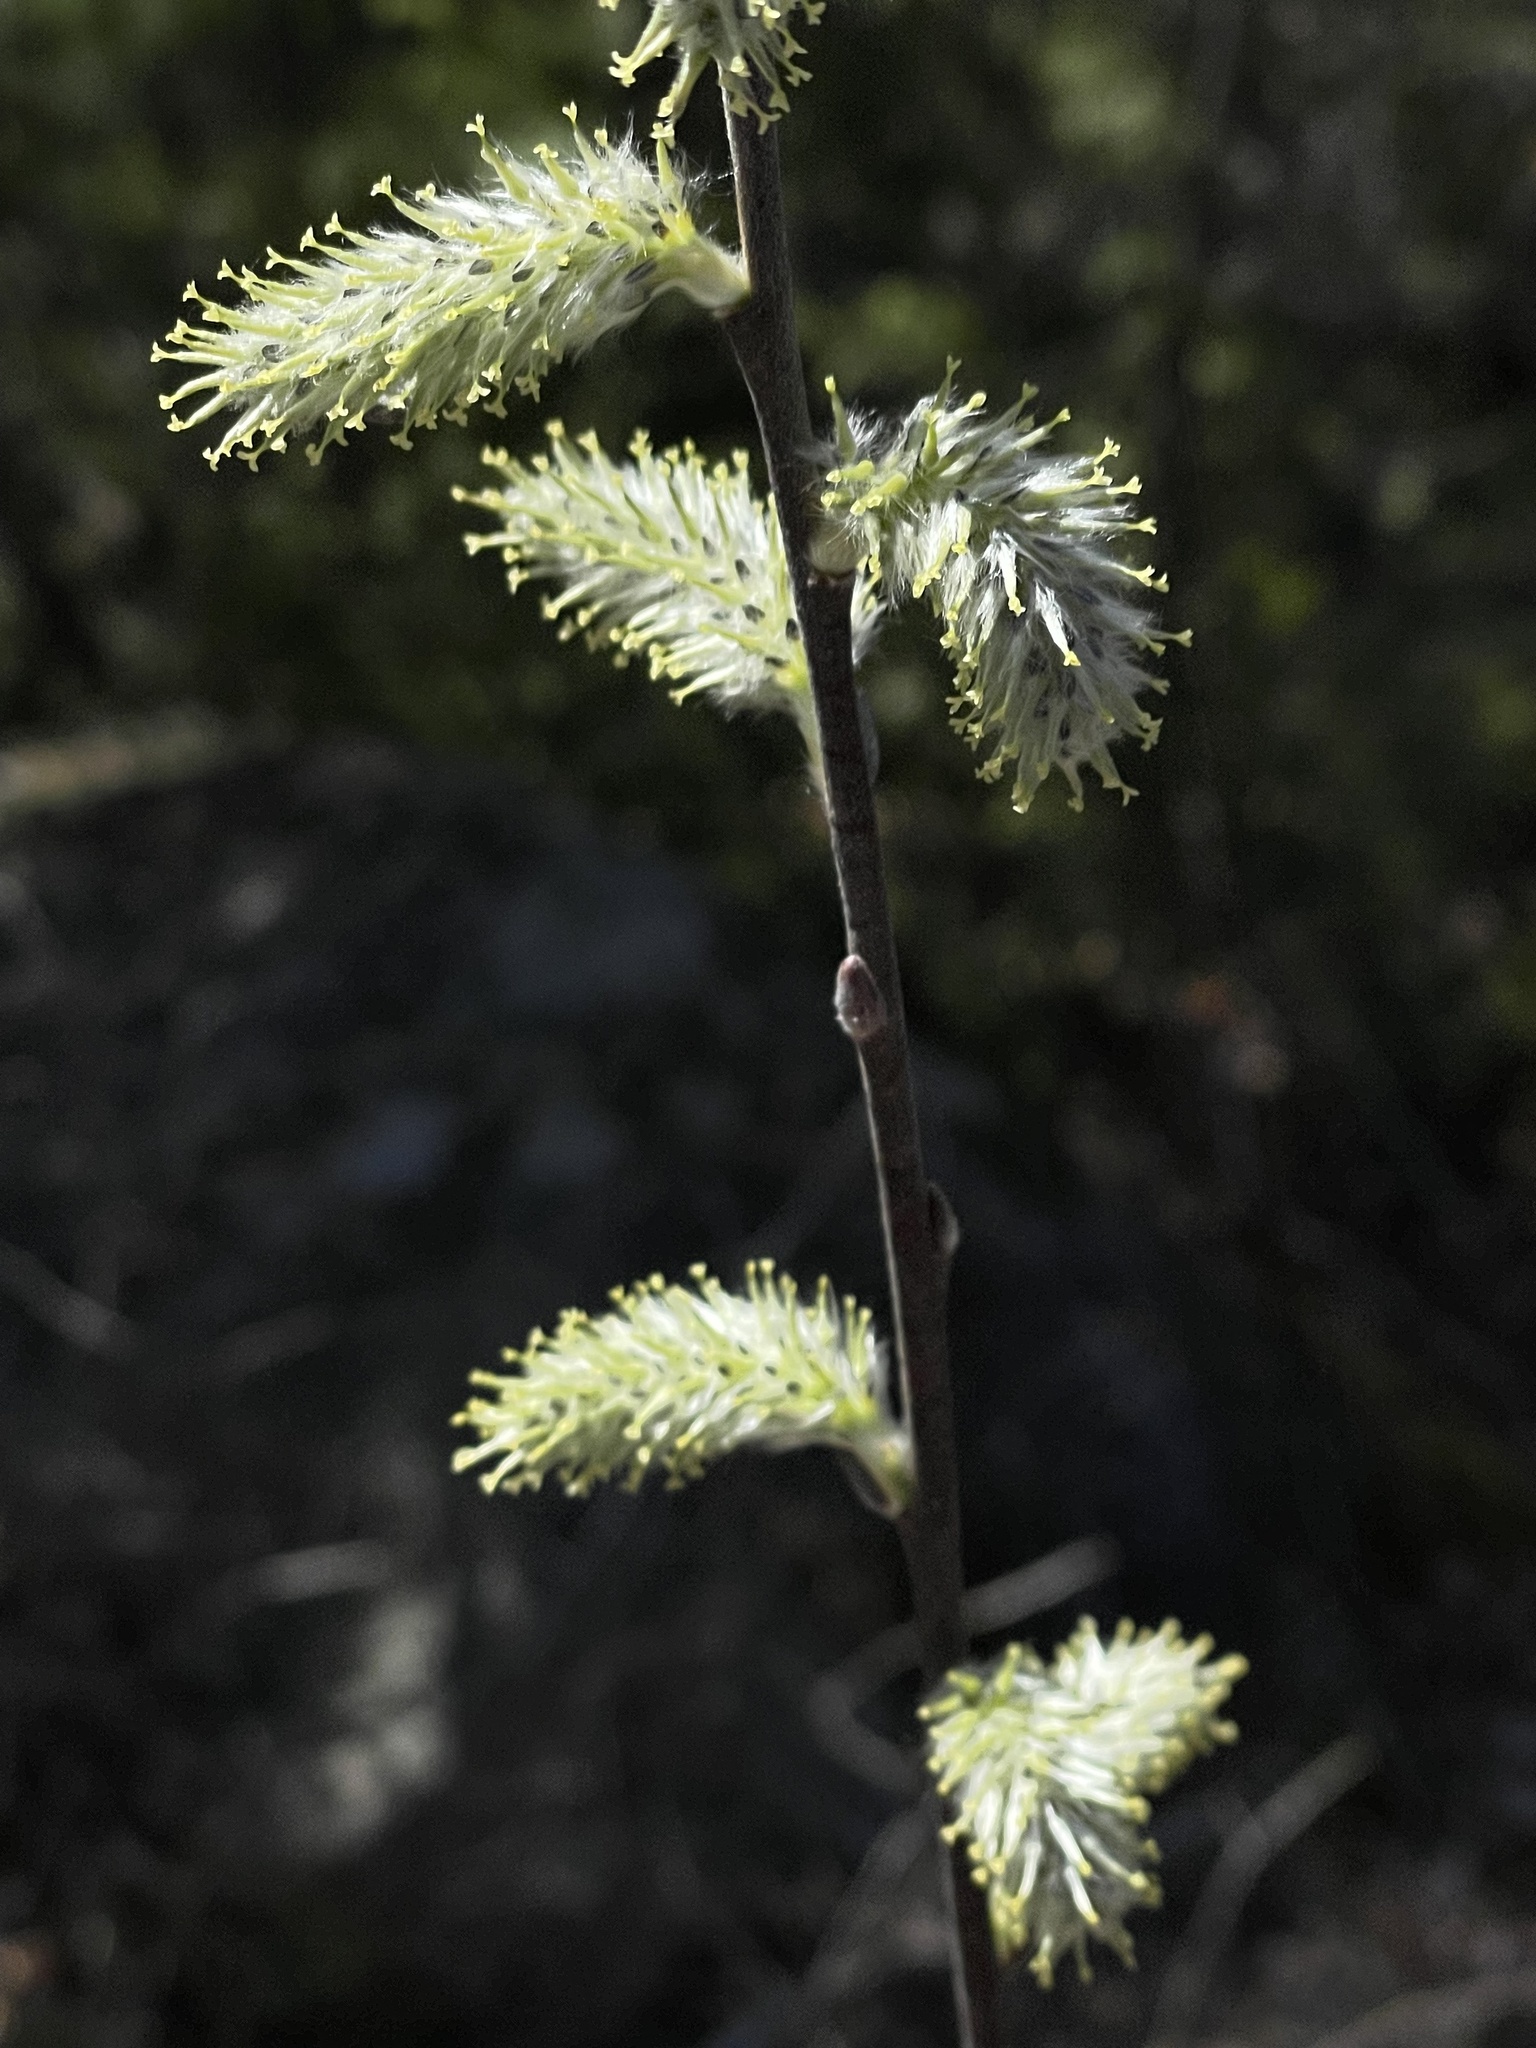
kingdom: Plantae
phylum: Tracheophyta
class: Magnoliopsida
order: Malpighiales
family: Salicaceae
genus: Salix
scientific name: Salix discolor
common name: Glaucous willow
